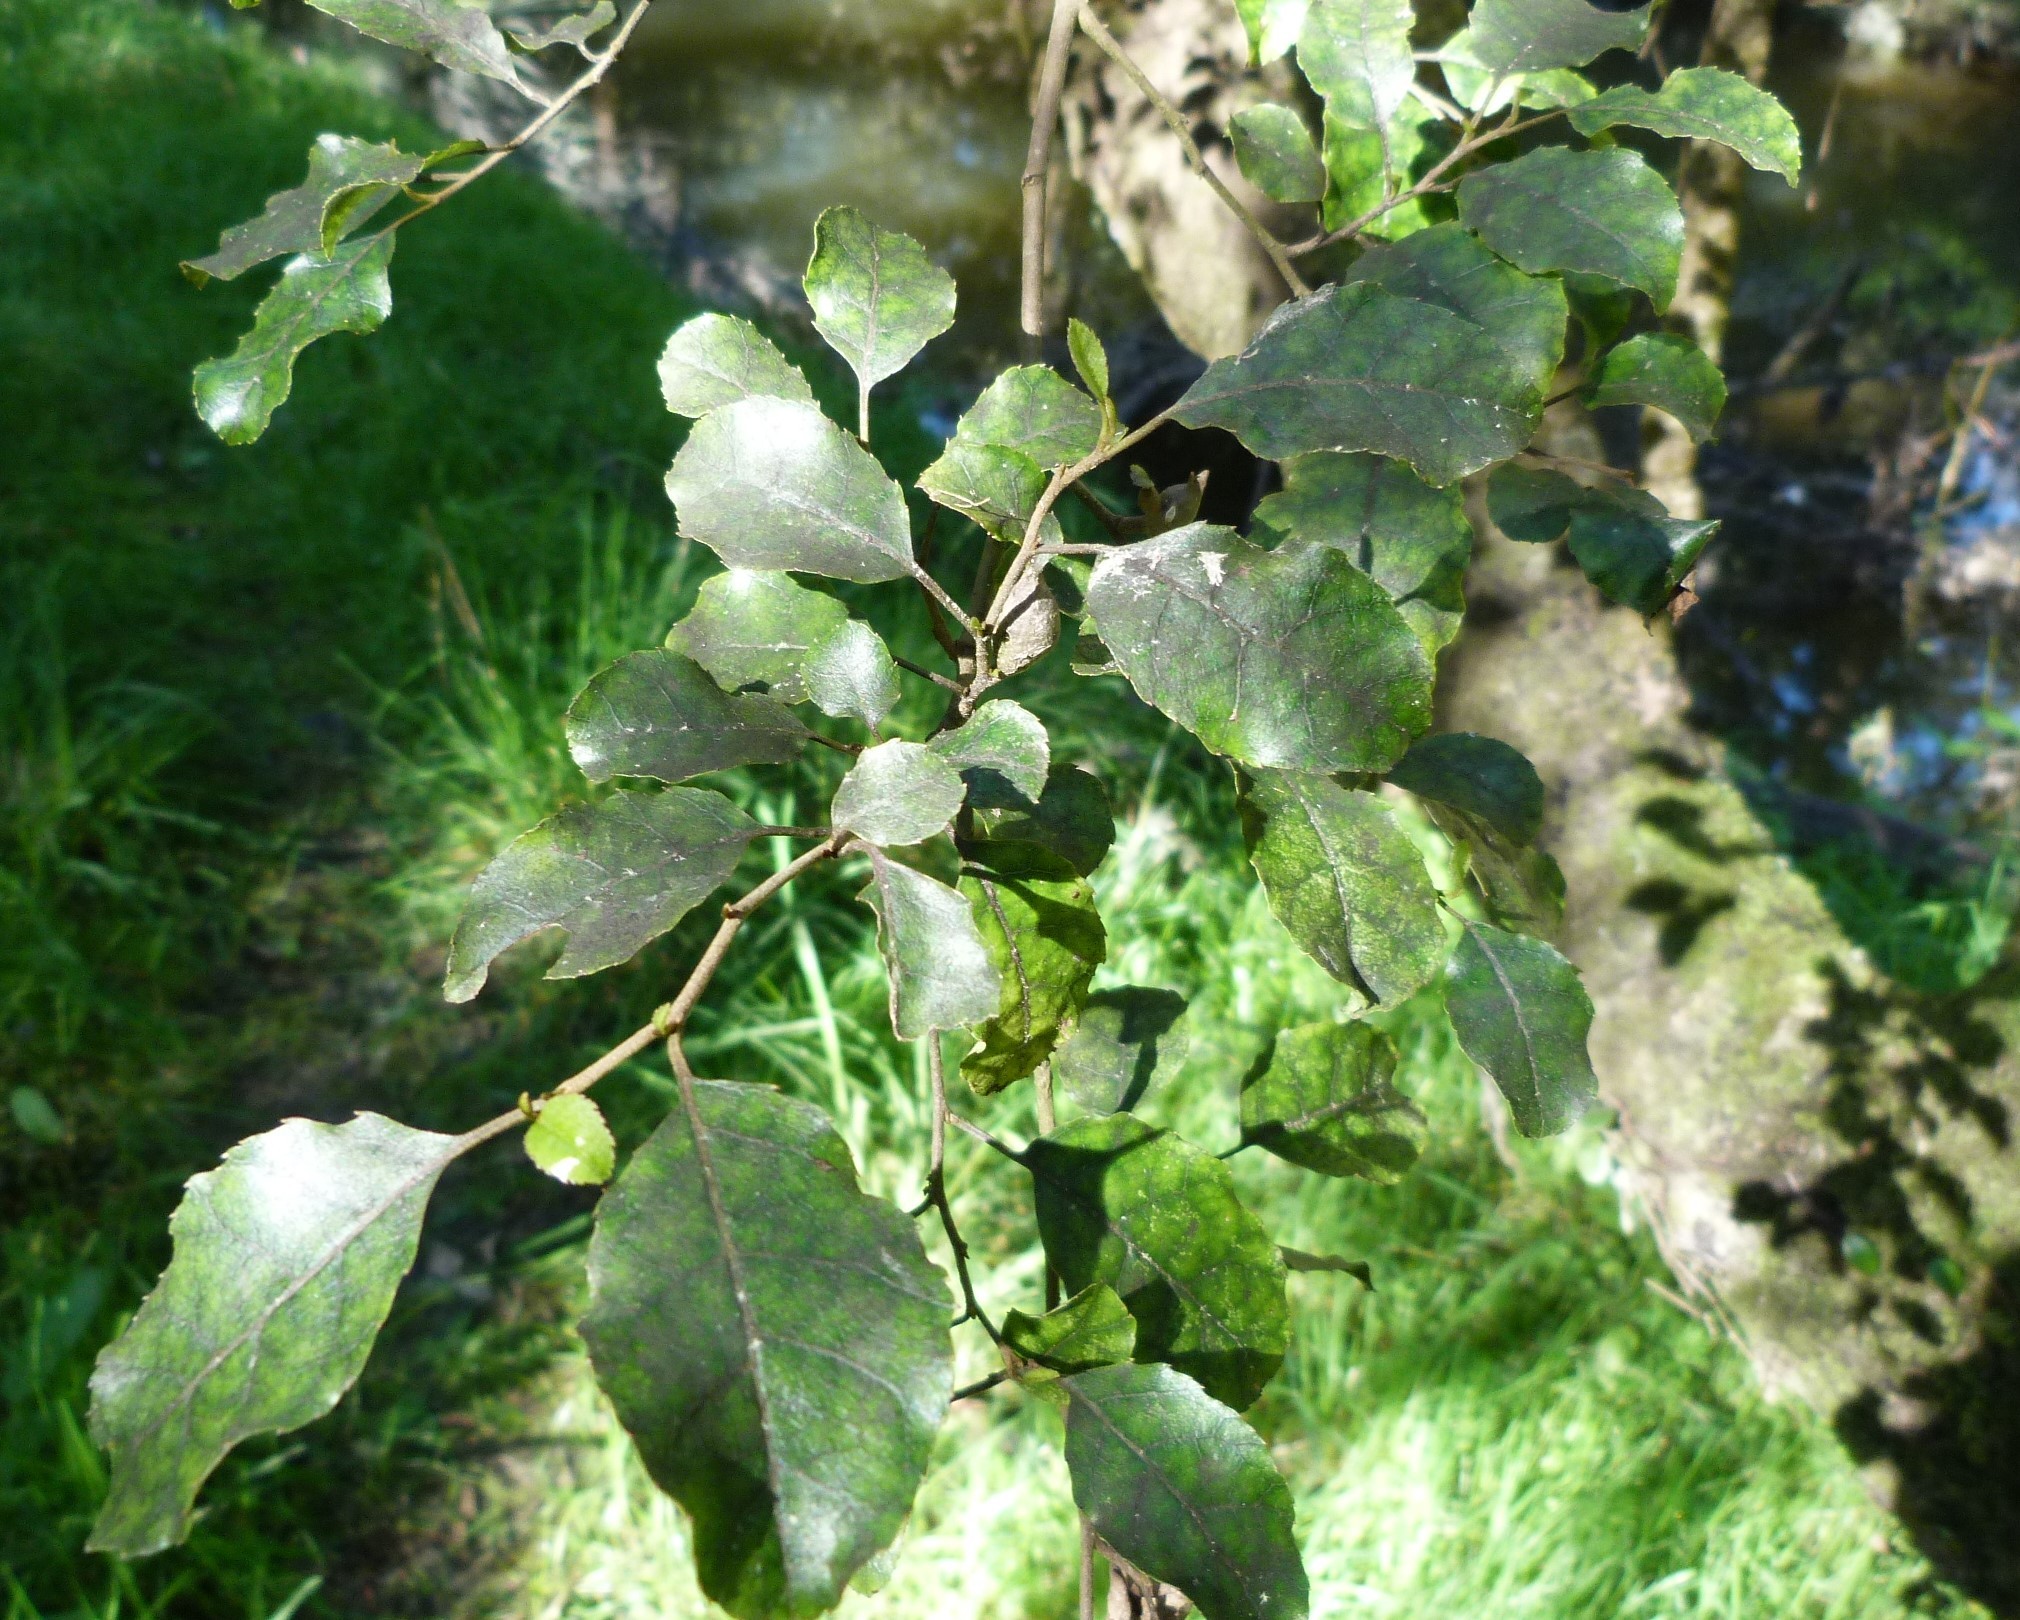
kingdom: Plantae
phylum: Tracheophyta
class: Magnoliopsida
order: Asterales
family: Rousseaceae
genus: Carpodetus
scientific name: Carpodetus serratus
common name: White mapau
